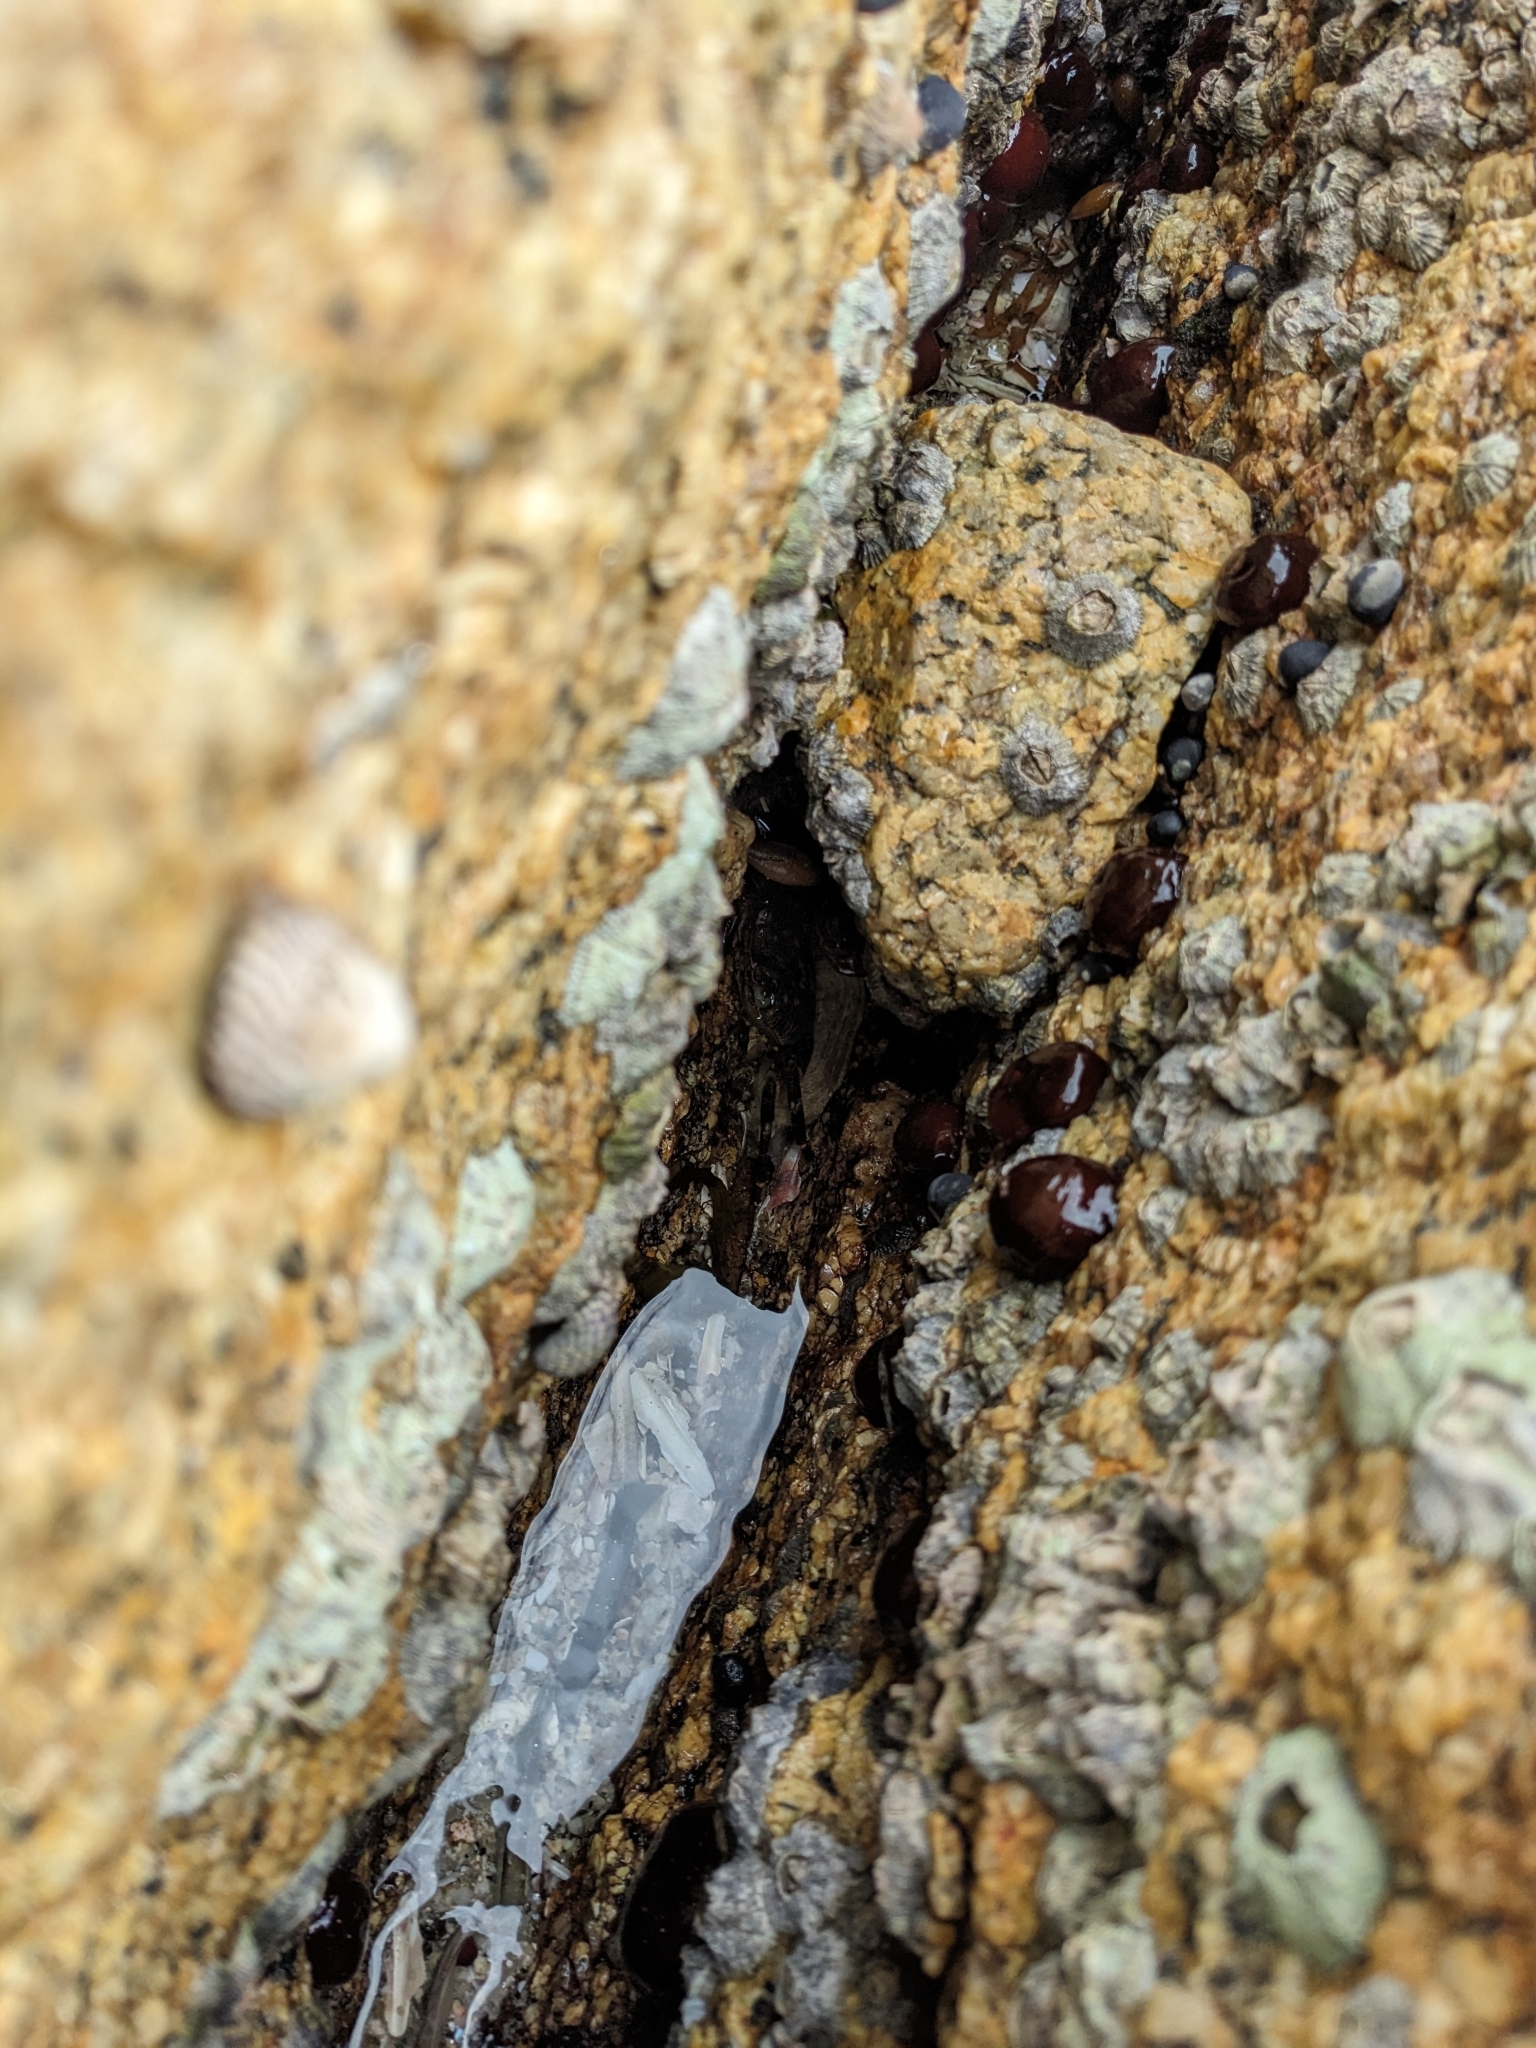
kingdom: Animalia
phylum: Arthropoda
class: Malacostraca
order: Decapoda
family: Grapsidae
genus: Leptograpsus
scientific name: Leptograpsus variegatus
